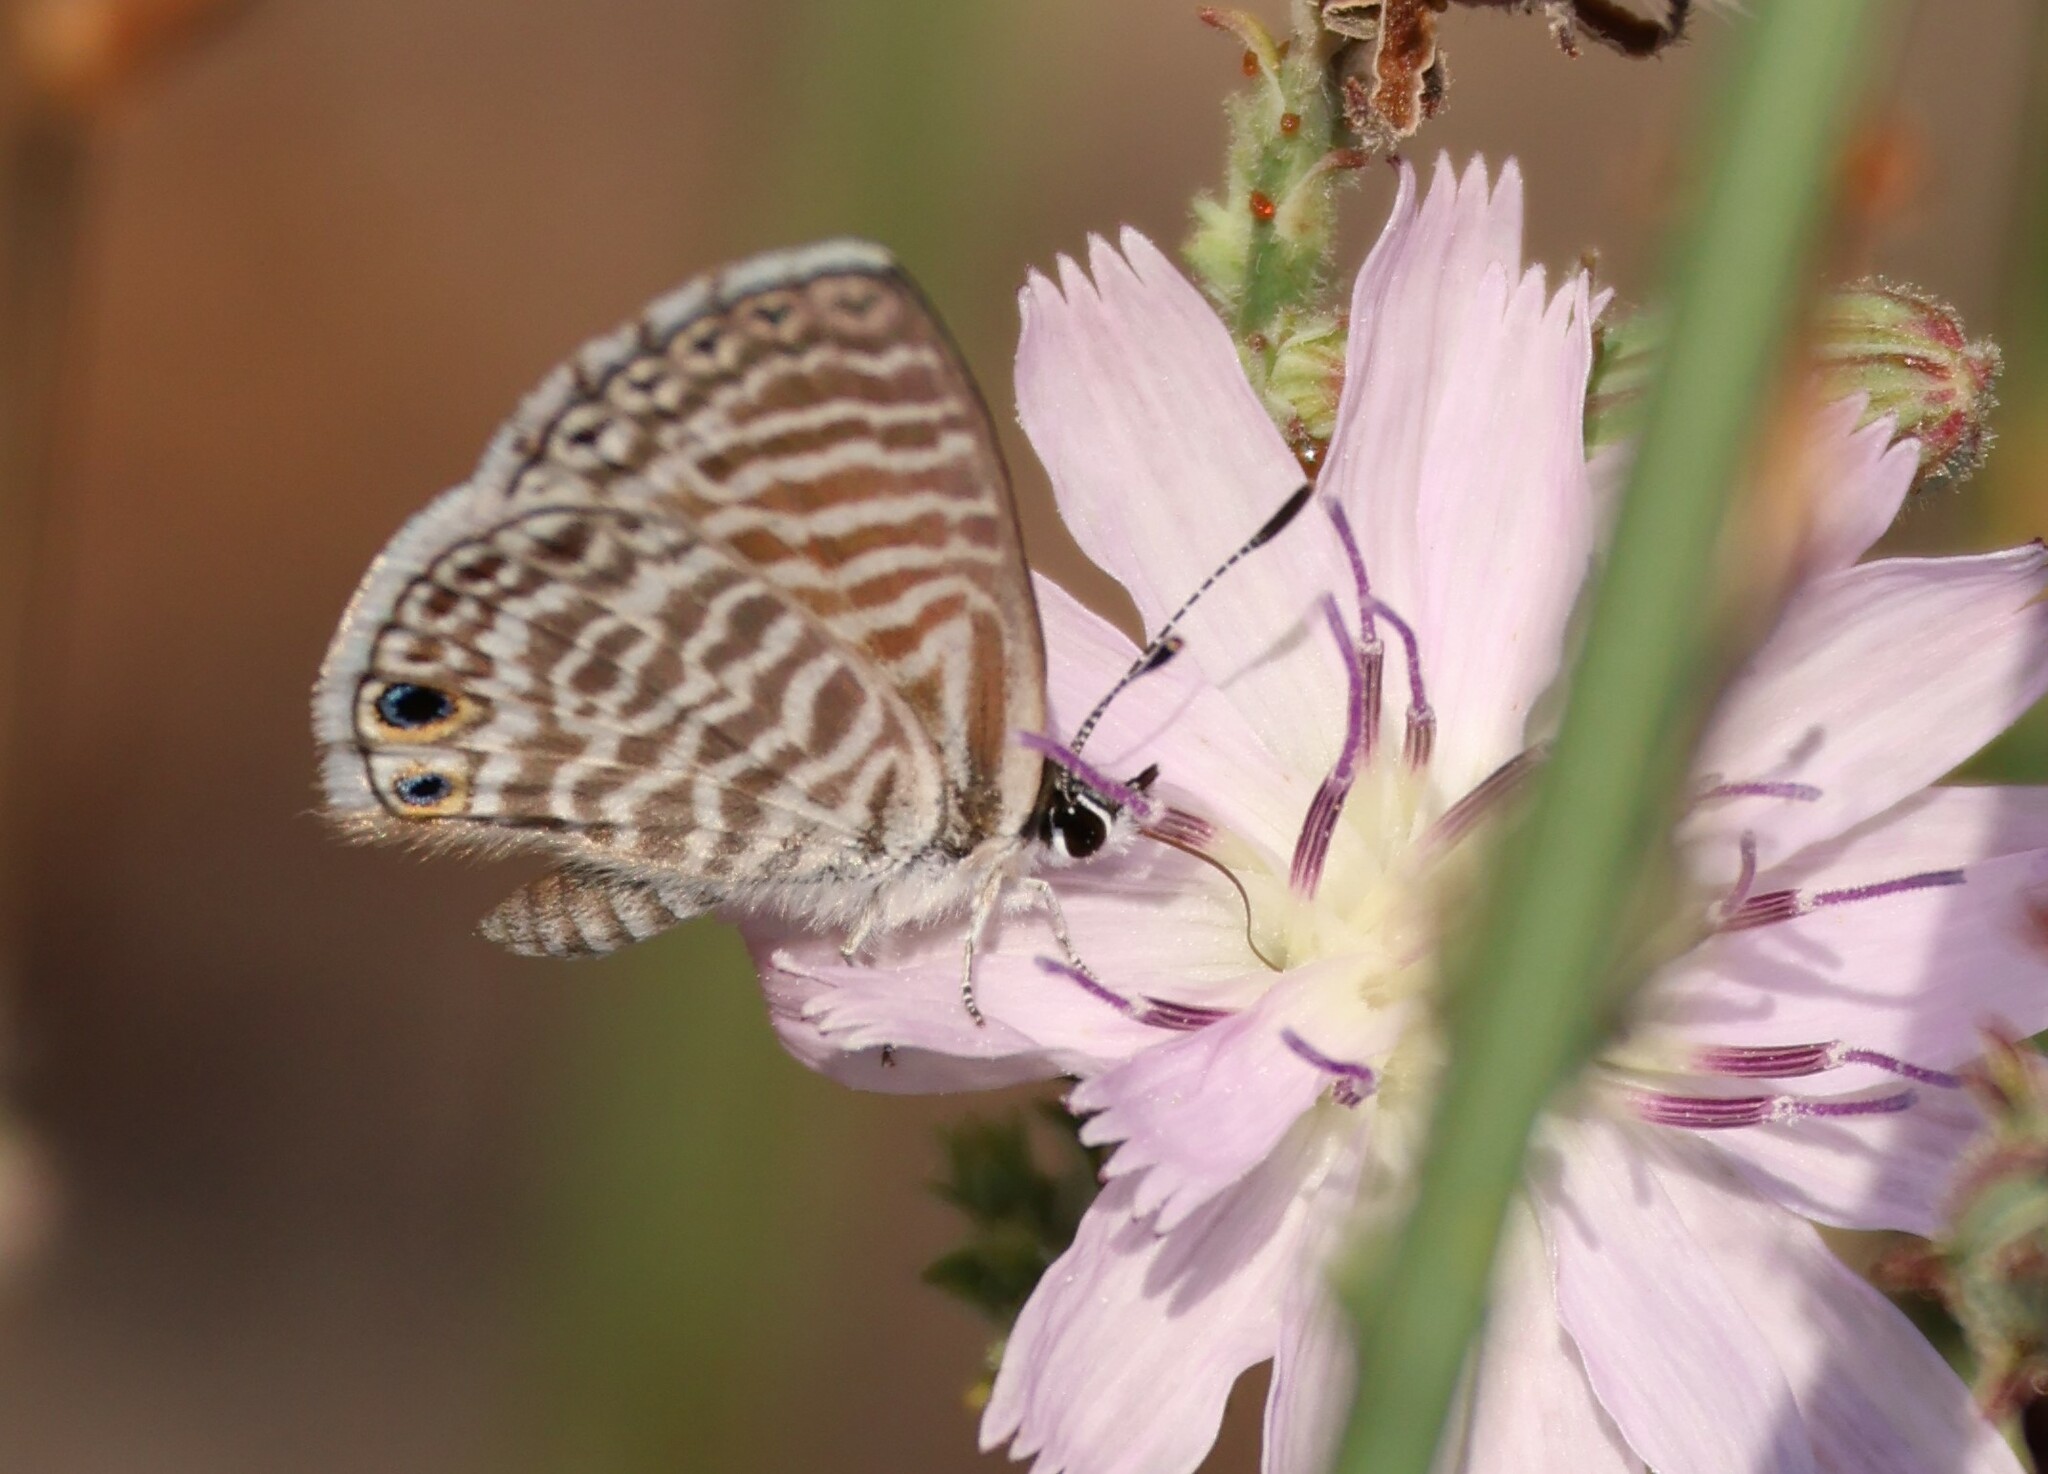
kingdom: Animalia
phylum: Arthropoda
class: Insecta
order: Lepidoptera
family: Lycaenidae
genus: Leptotes
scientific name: Leptotes marina
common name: Marine blue
